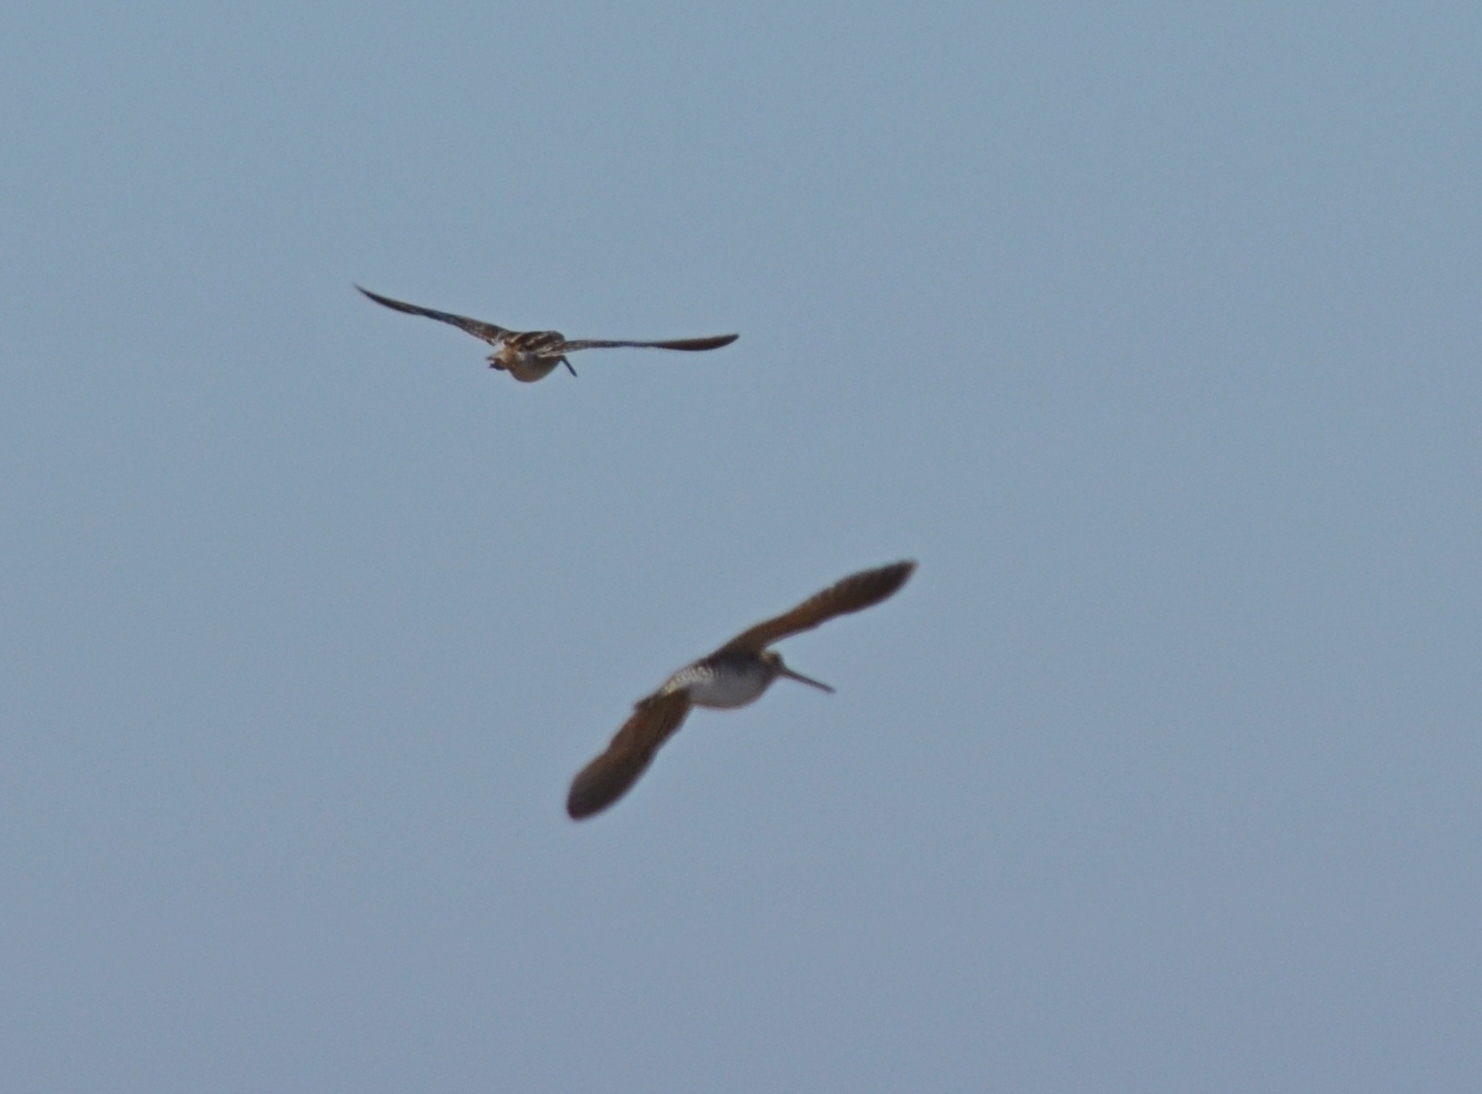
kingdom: Animalia
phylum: Chordata
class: Aves
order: Charadriiformes
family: Scolopacidae
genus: Gallinago
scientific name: Gallinago delicata
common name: Wilson's snipe
